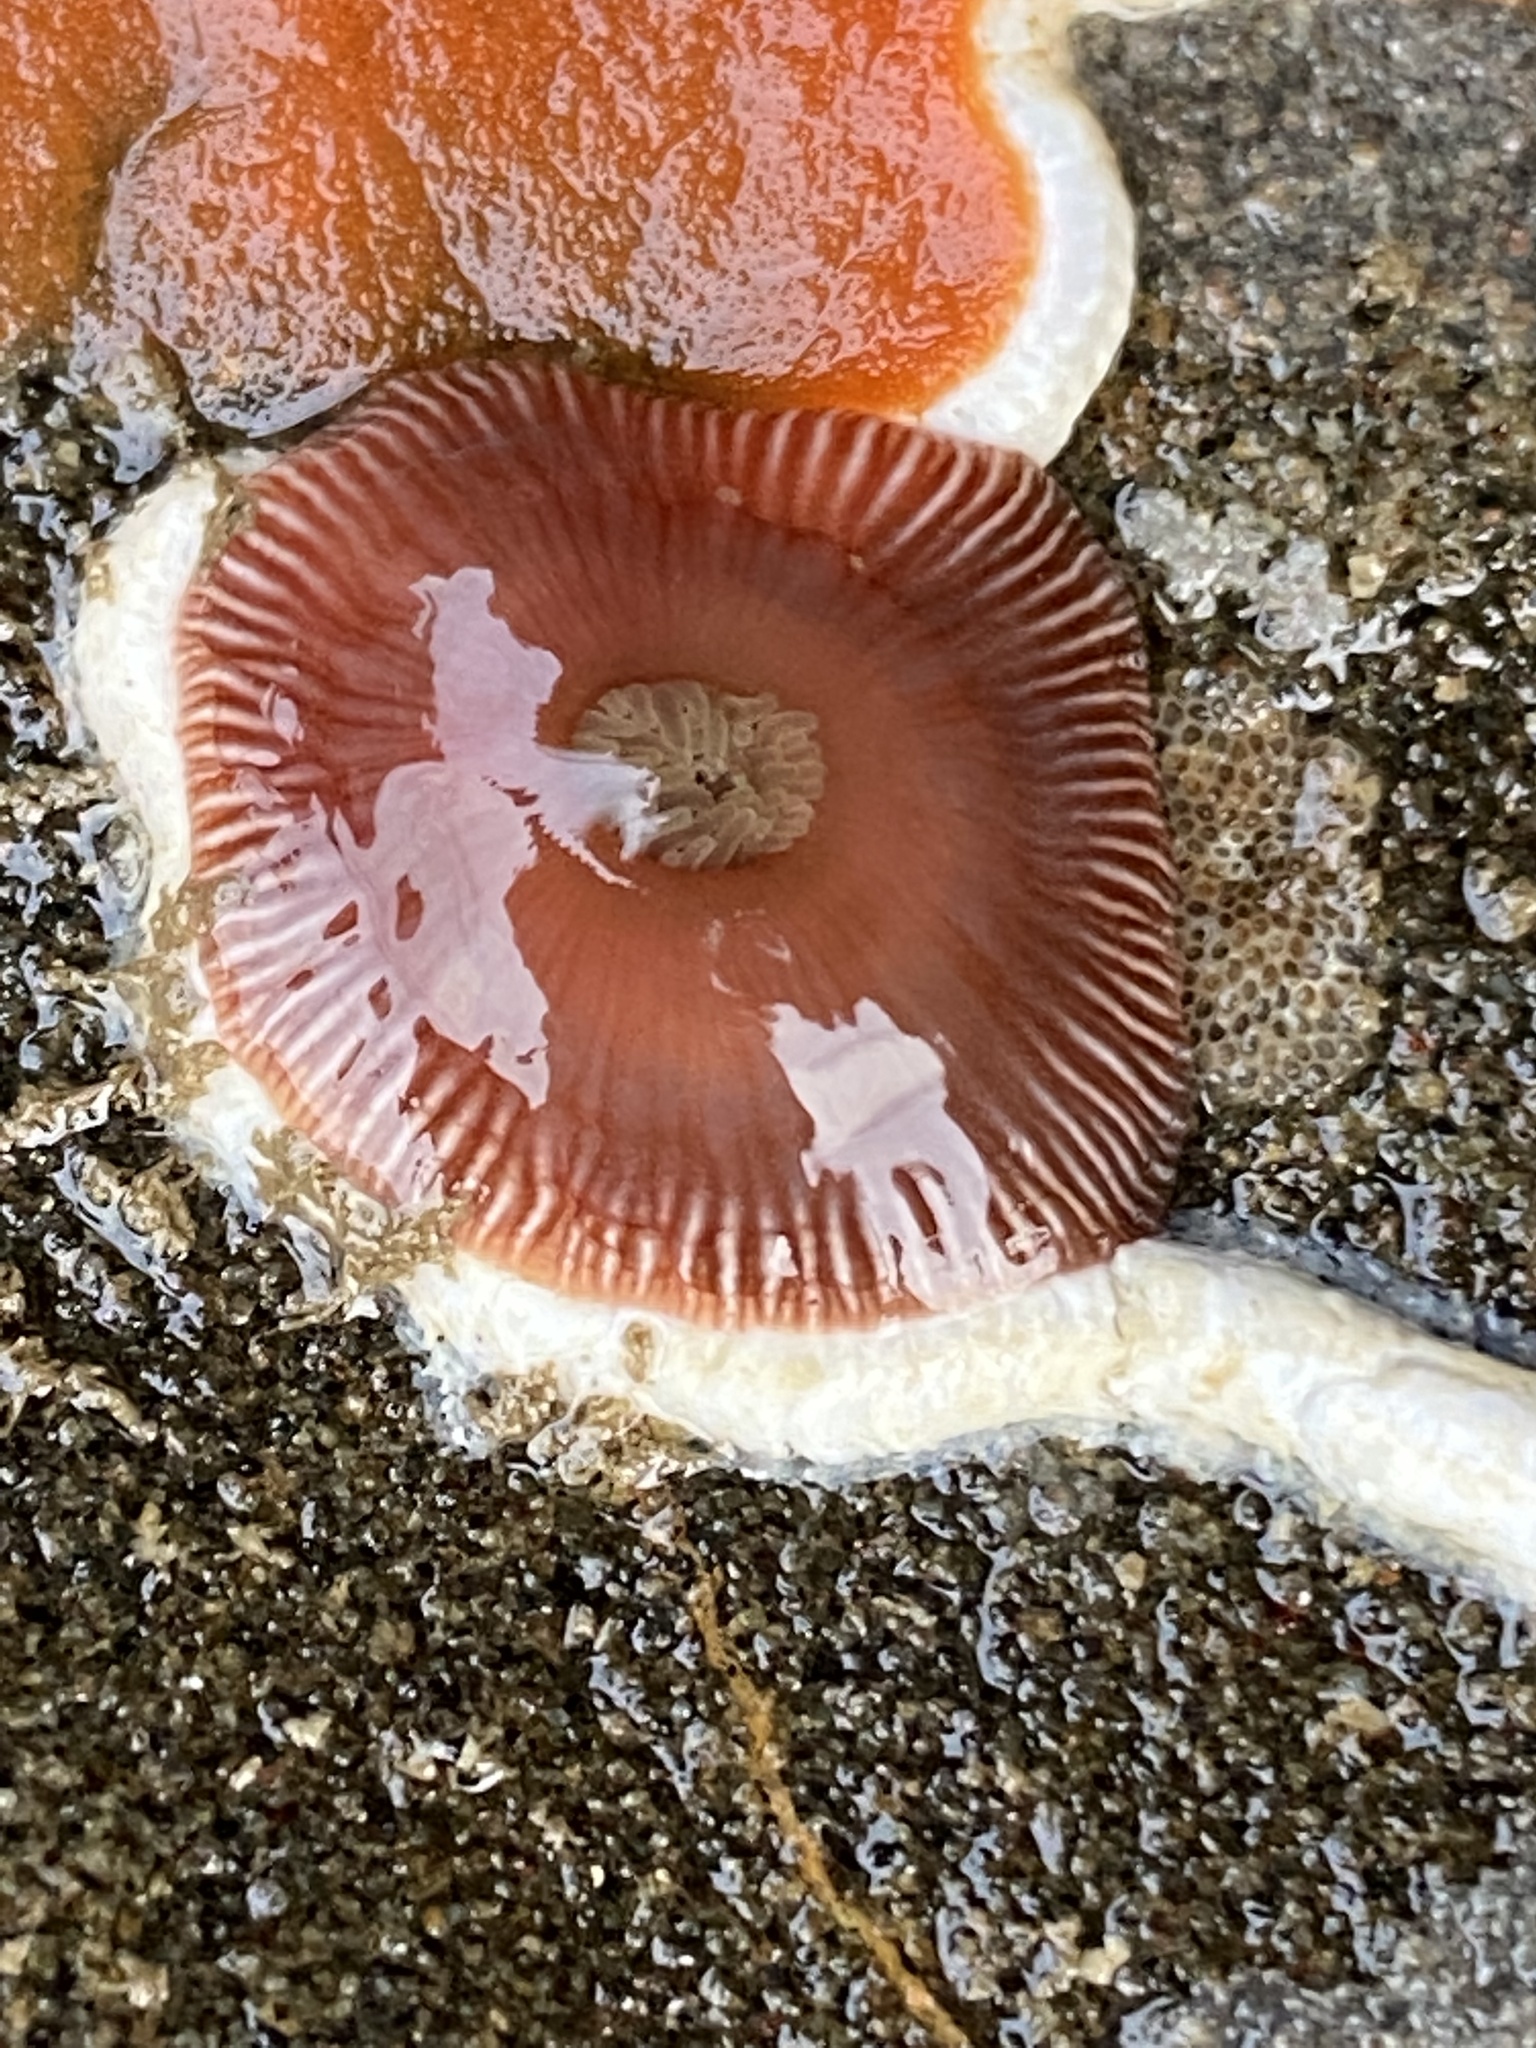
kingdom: Animalia
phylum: Cnidaria
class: Anthozoa
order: Actiniaria
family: Actiniidae
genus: Epiactis
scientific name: Epiactis prolifera
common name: Brooding anemone
